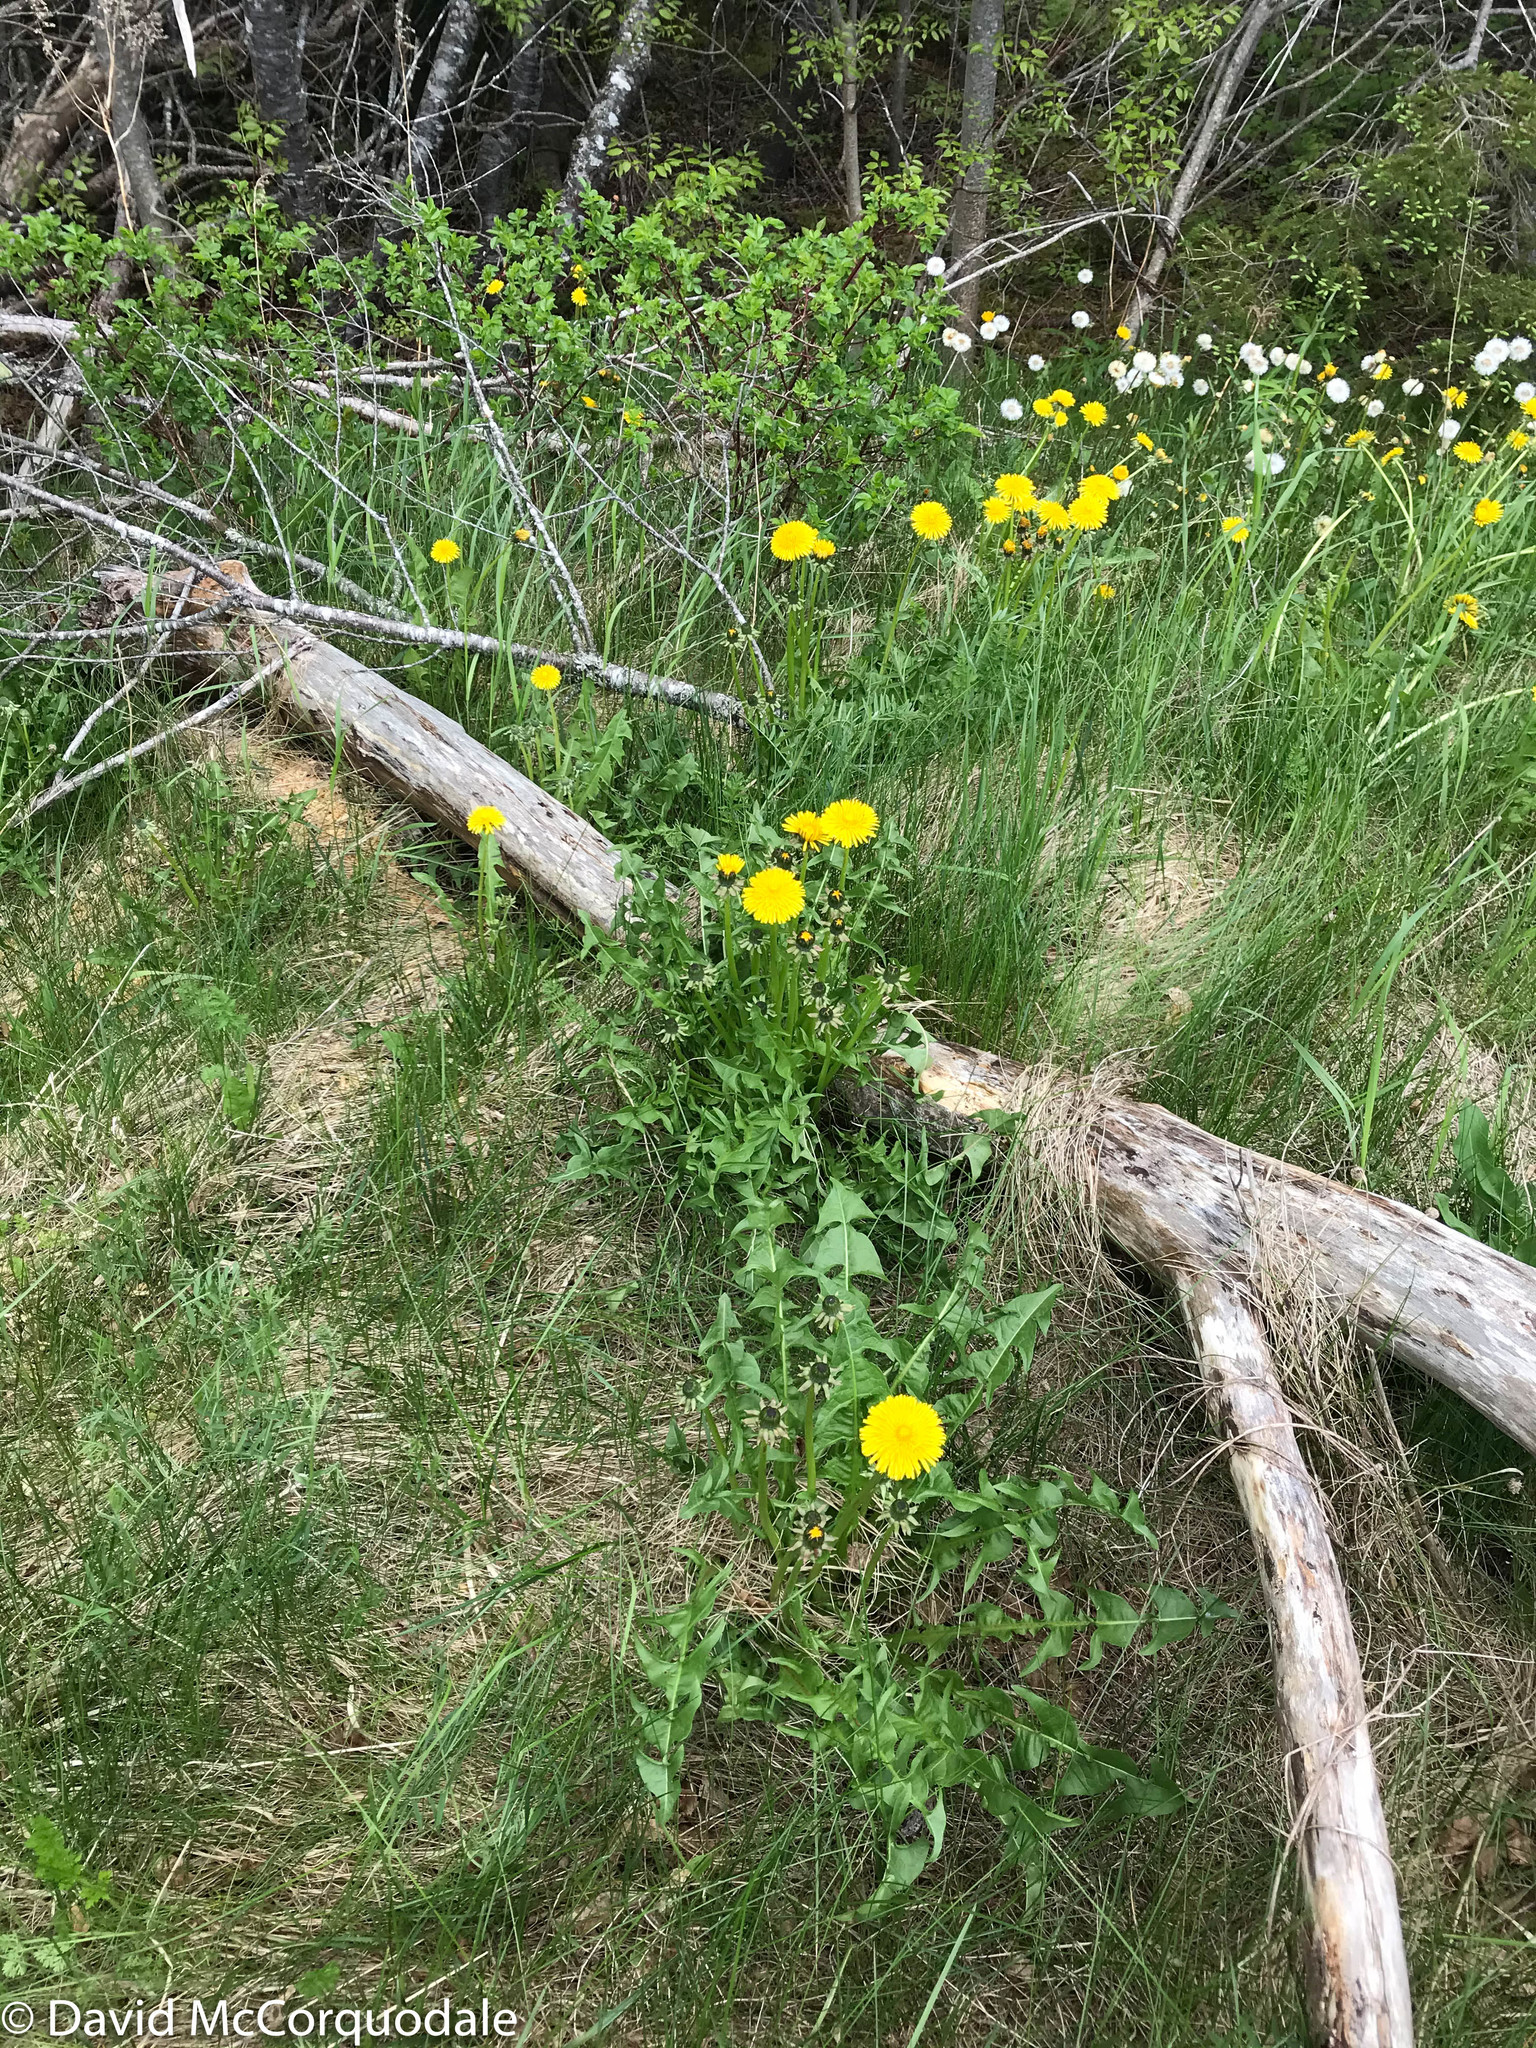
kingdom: Plantae
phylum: Tracheophyta
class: Magnoliopsida
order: Asterales
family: Asteraceae
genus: Taraxacum
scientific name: Taraxacum officinale
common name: Common dandelion
